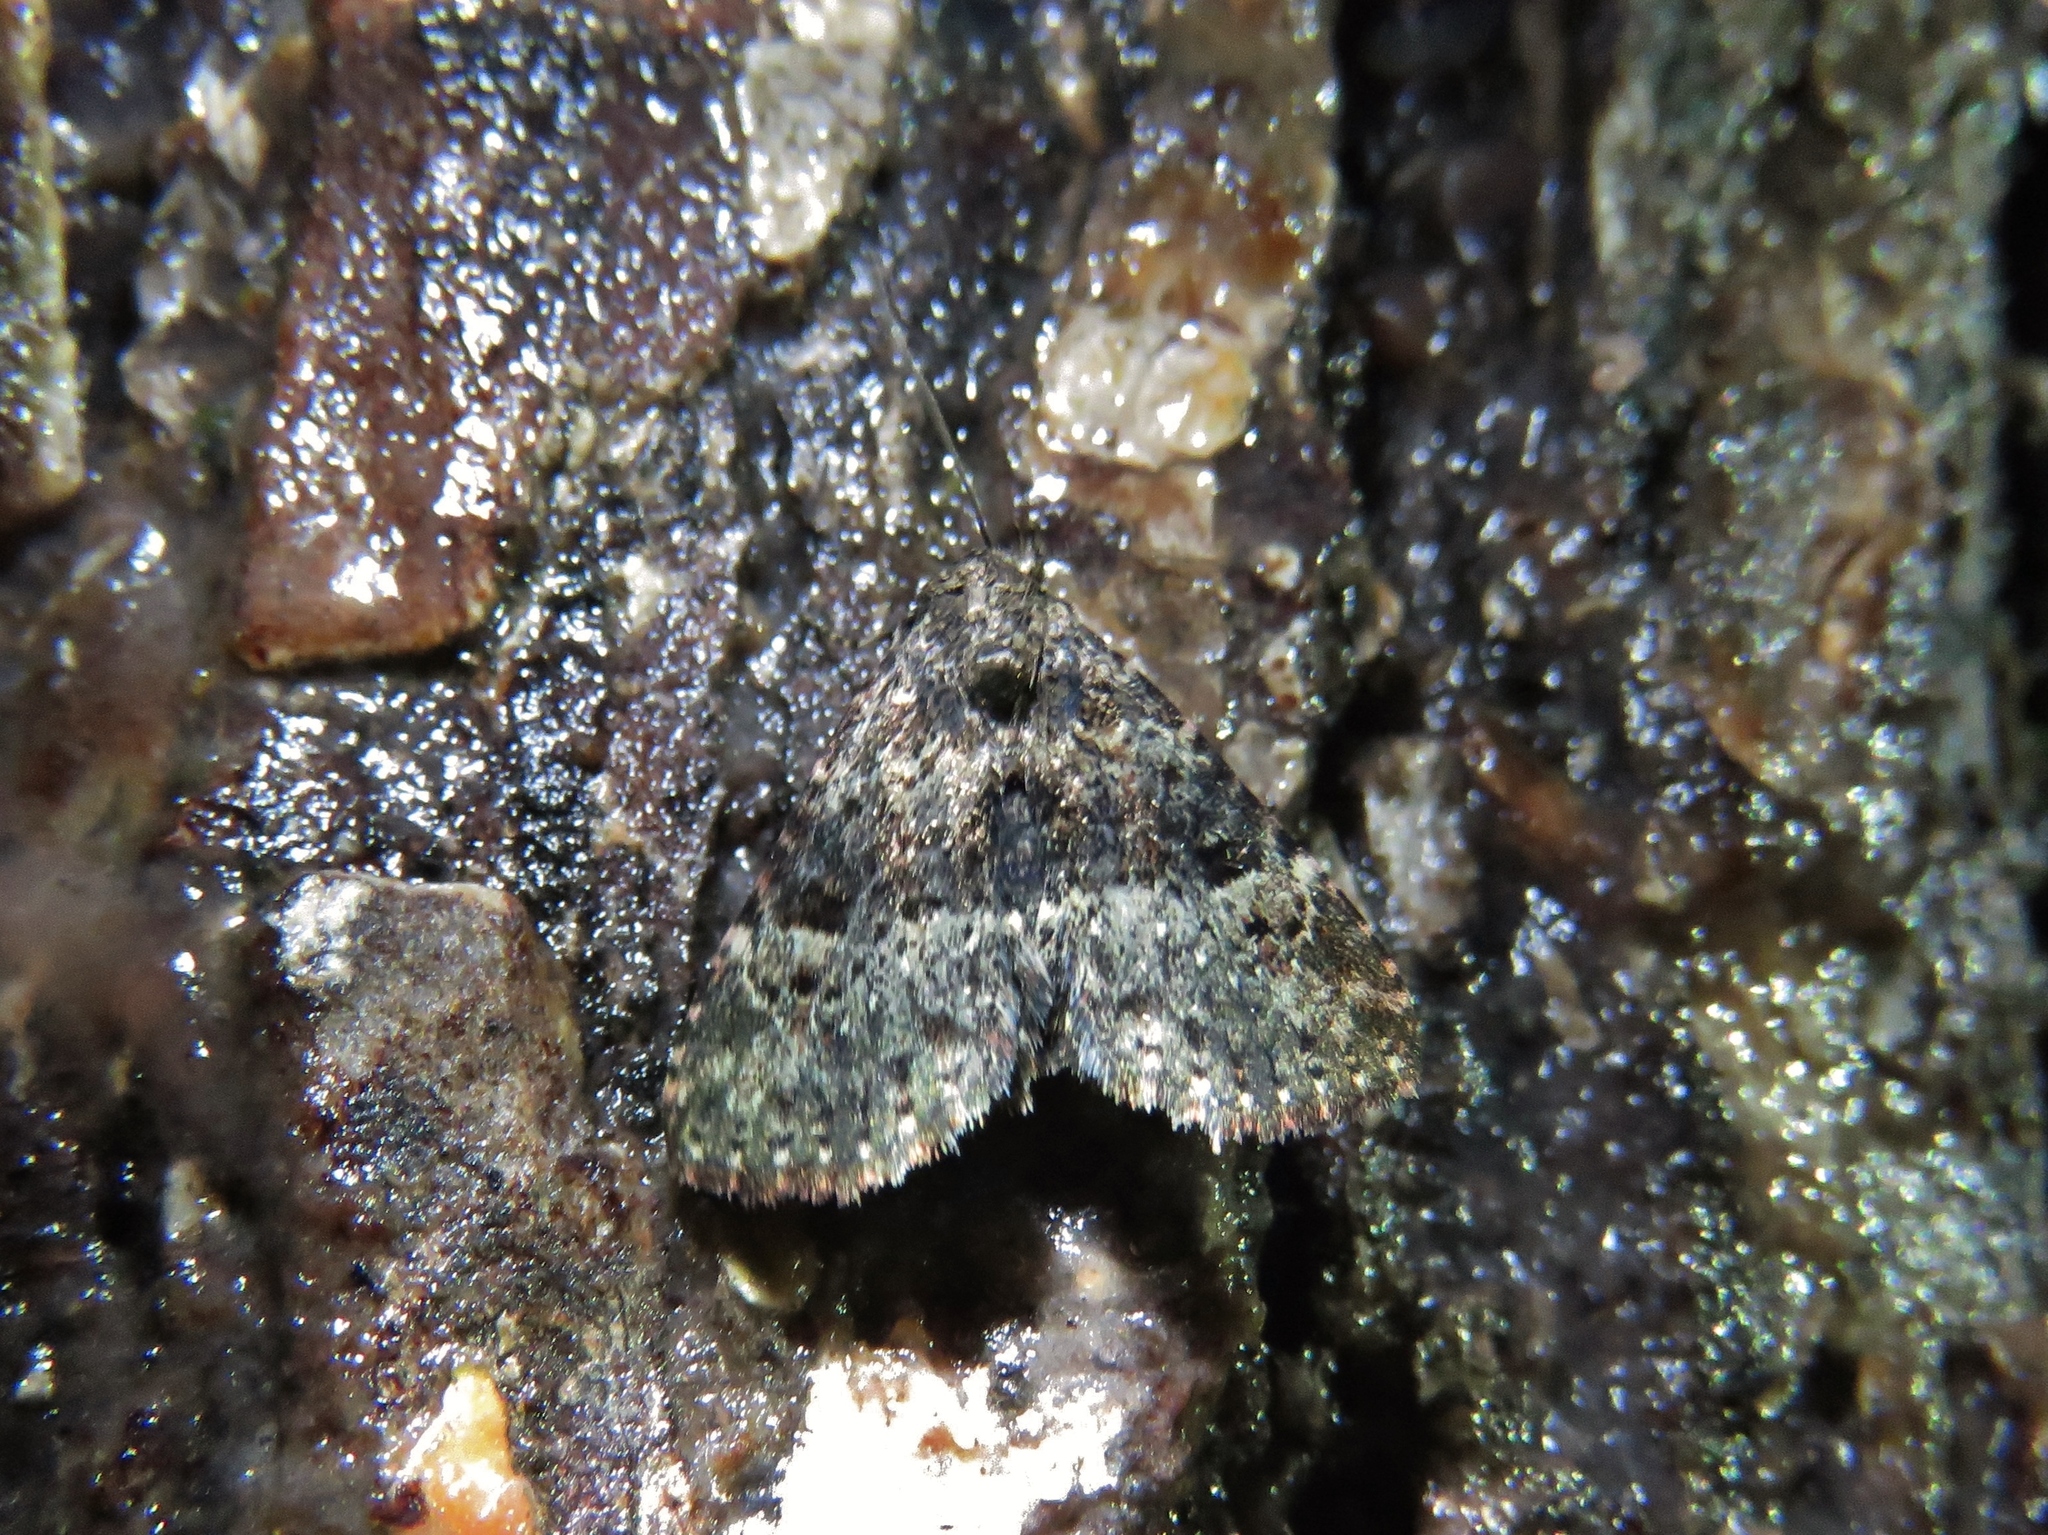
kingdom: Animalia
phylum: Arthropoda
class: Insecta
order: Lepidoptera
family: Erebidae
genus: Metalectra
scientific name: Metalectra discalis
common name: Common fungus moth
